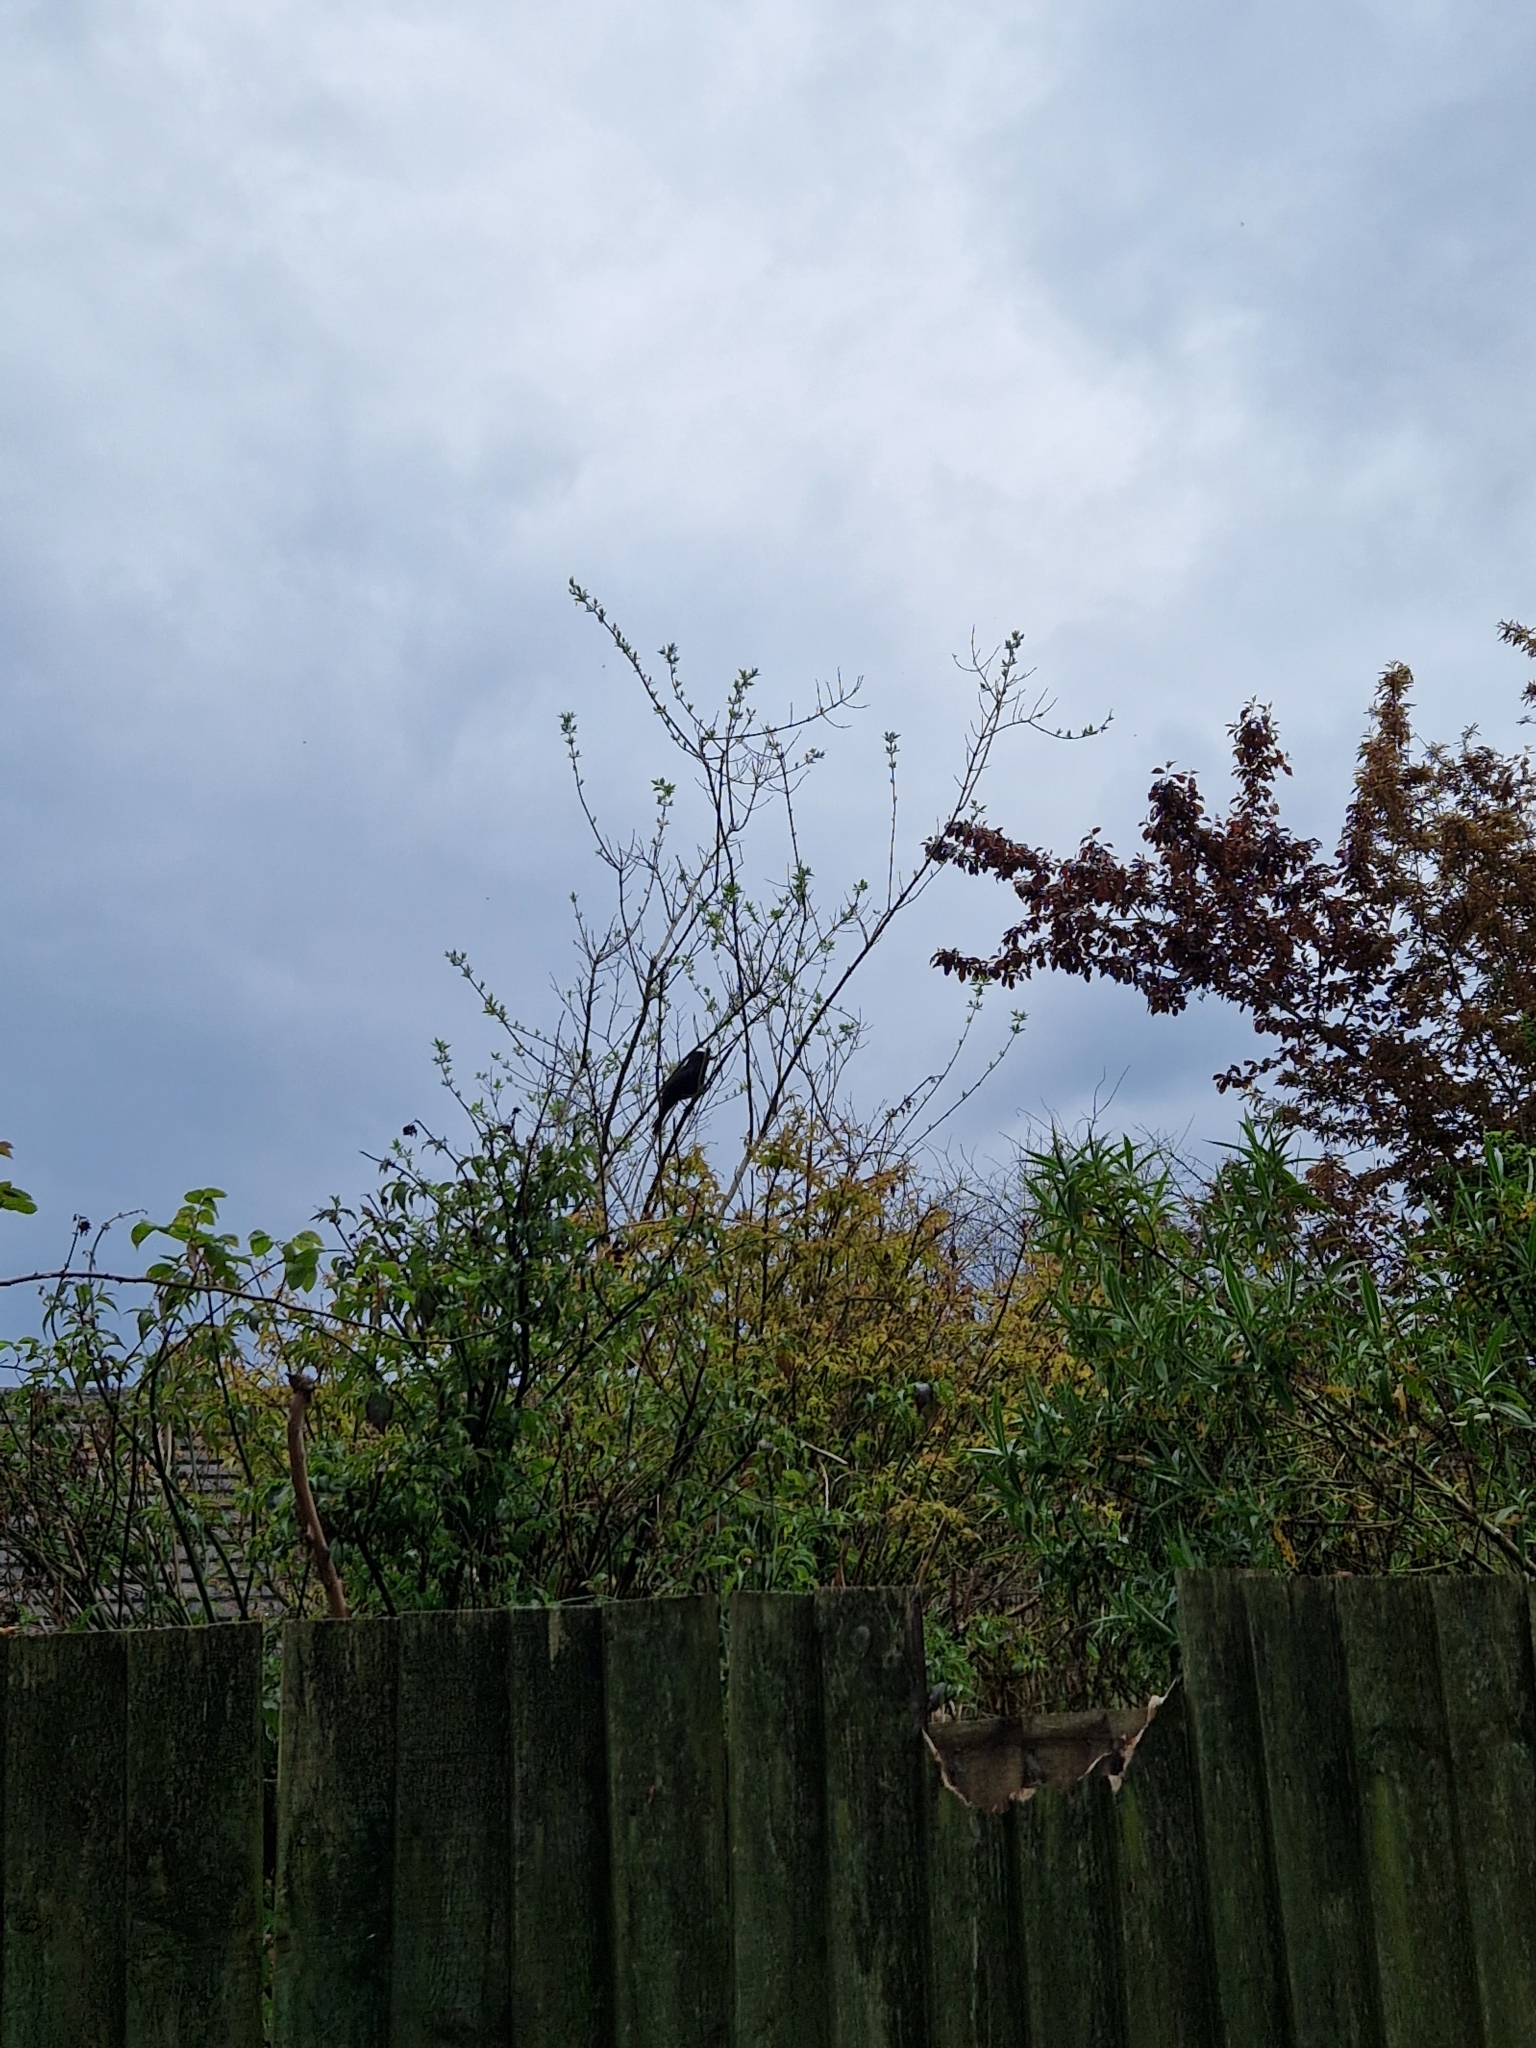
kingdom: Animalia
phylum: Chordata
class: Aves
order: Passeriformes
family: Turdidae
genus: Turdus
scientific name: Turdus merula
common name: Common blackbird
